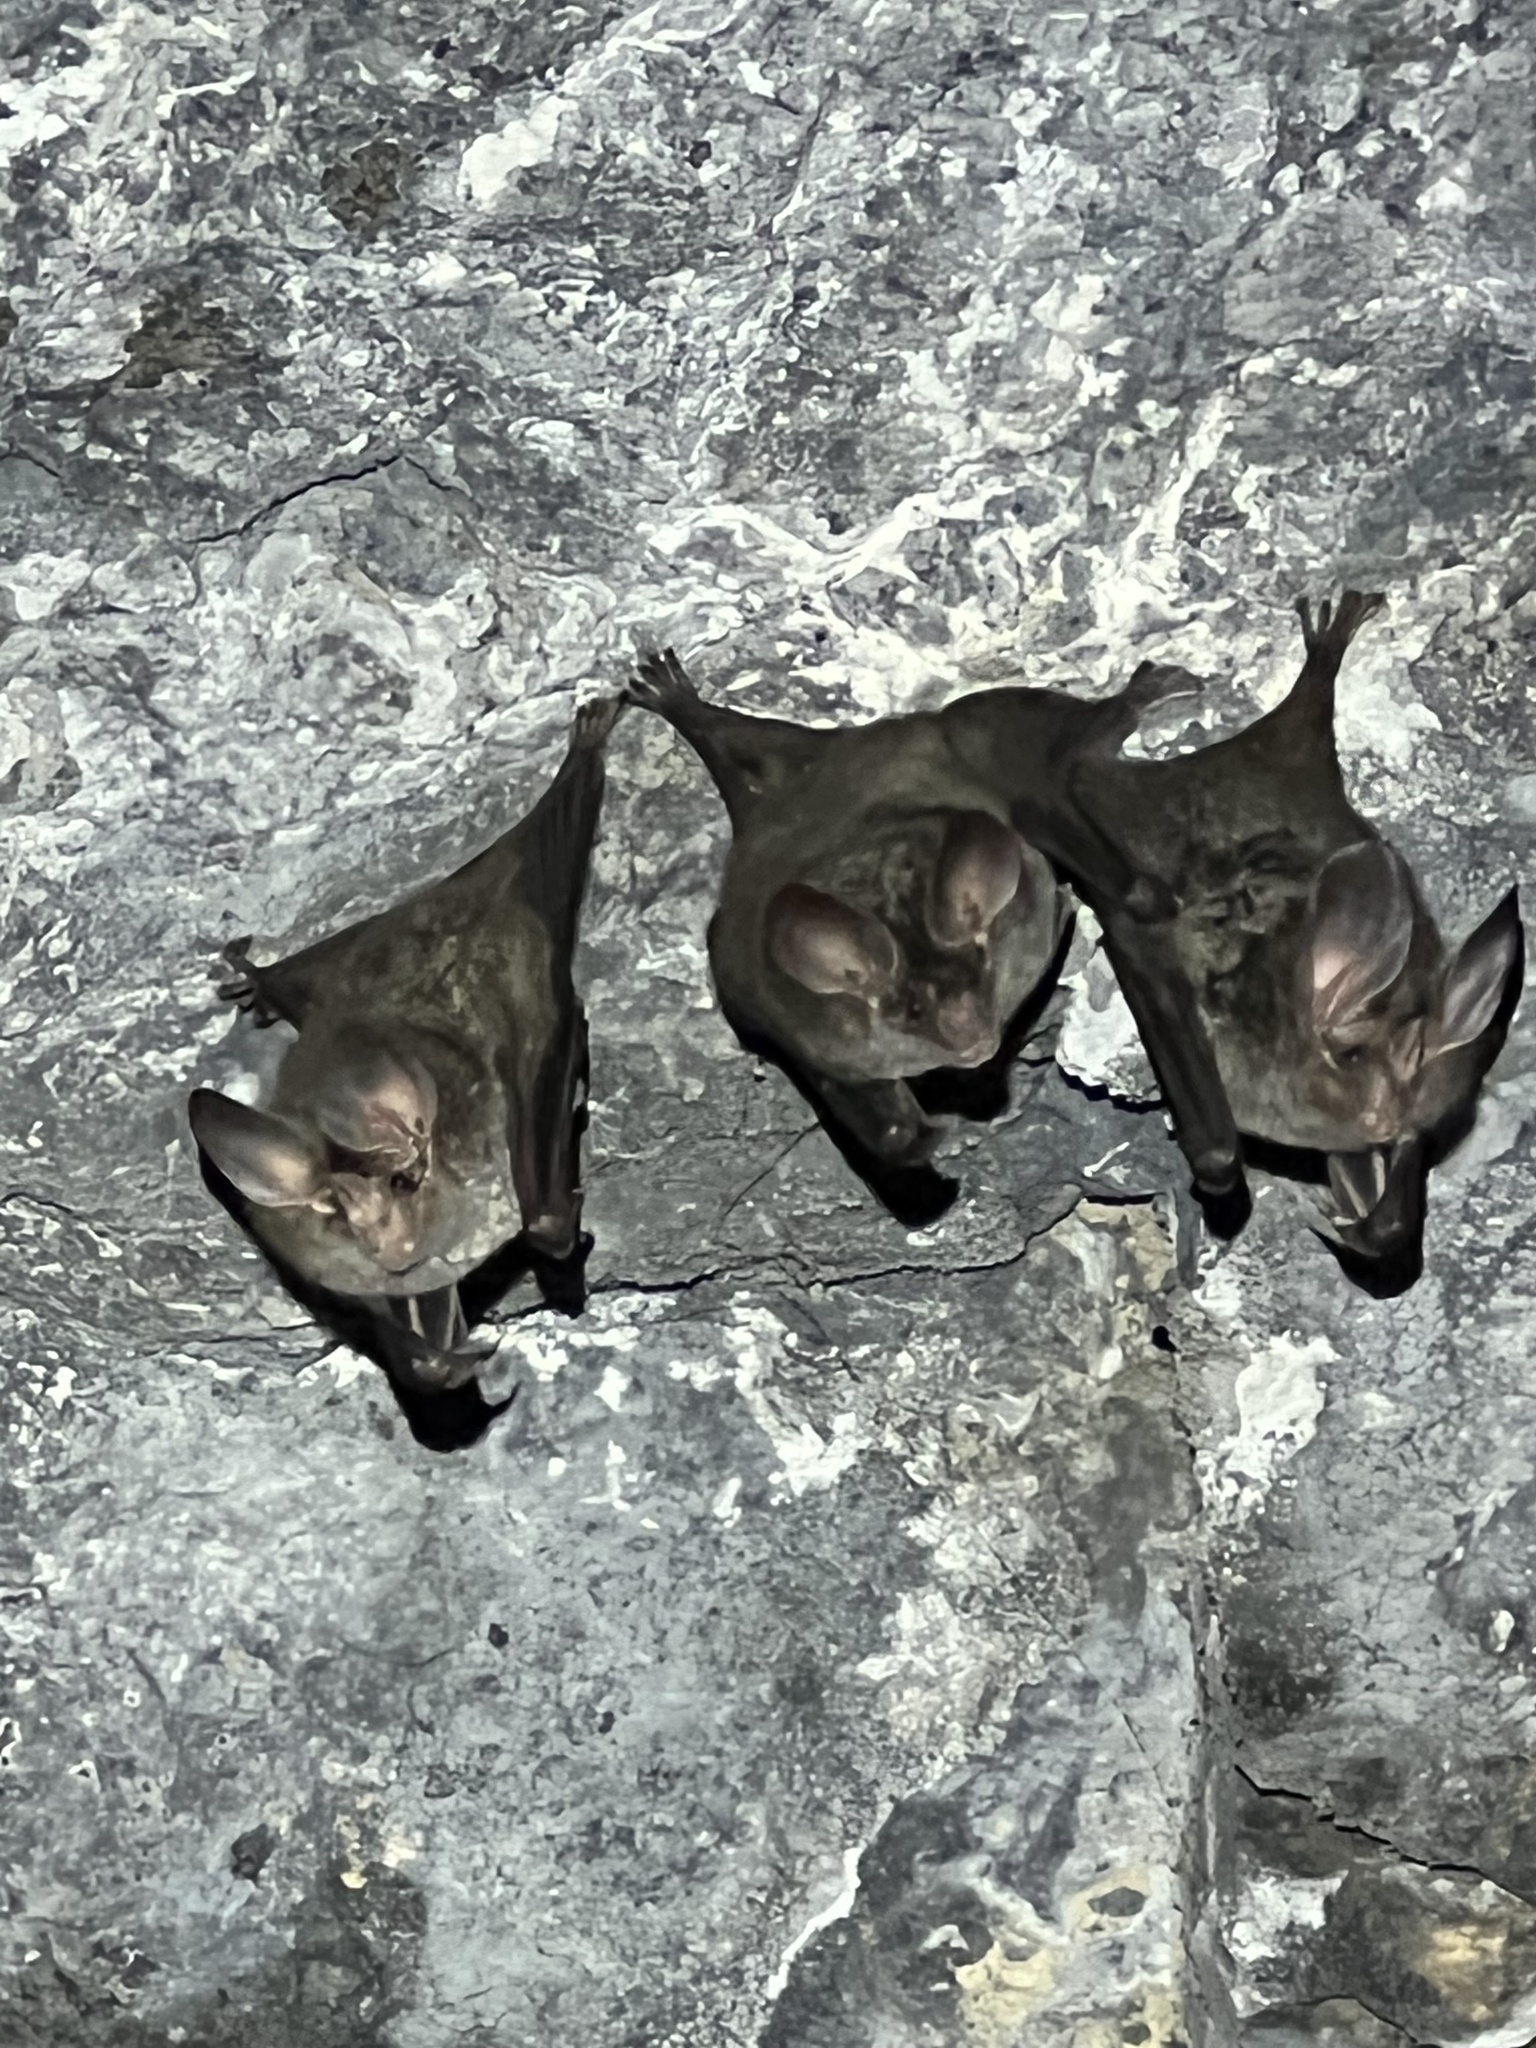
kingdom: Animalia
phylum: Chordata
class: Mammalia
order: Chiroptera
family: Phyllostomidae
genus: Chrotopterus
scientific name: Chrotopterus auritus
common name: Woolly false vampire bat
